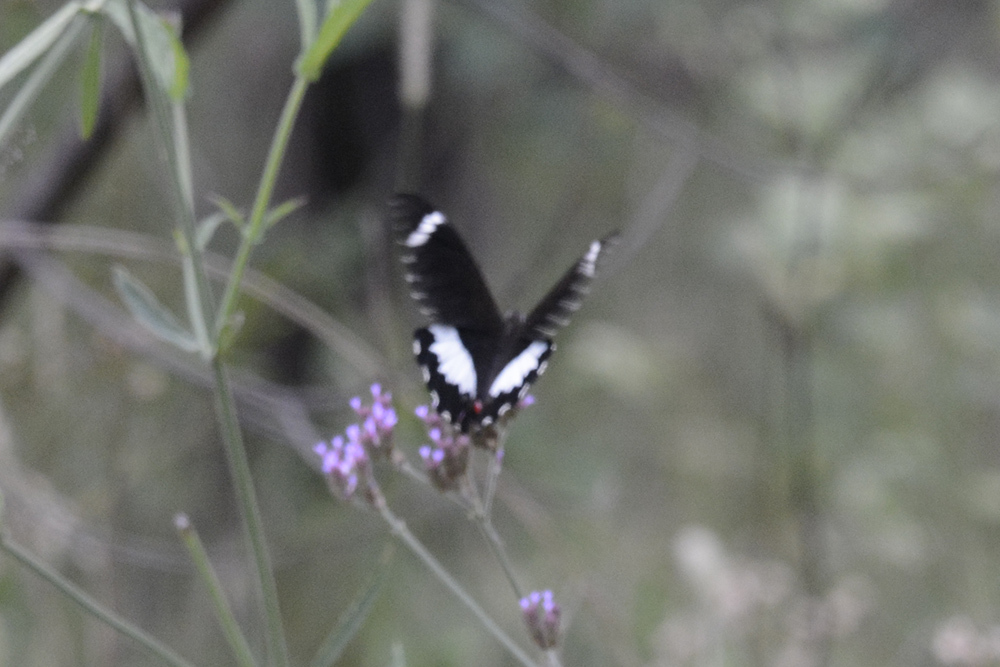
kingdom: Animalia
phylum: Arthropoda
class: Insecta
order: Lepidoptera
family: Papilionidae
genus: Papilio
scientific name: Papilio aegeus
